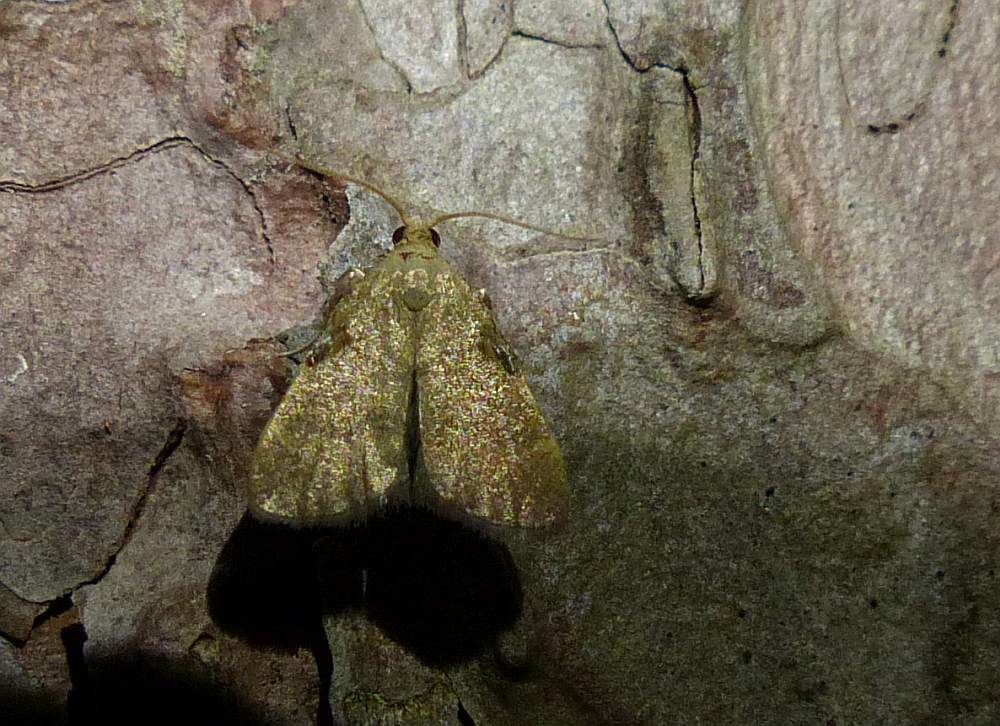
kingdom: Animalia
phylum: Arthropoda
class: Insecta
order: Lepidoptera
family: Pyralidae
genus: Condylolomia
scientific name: Condylolomia participialis
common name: Drab condylolomia moth
